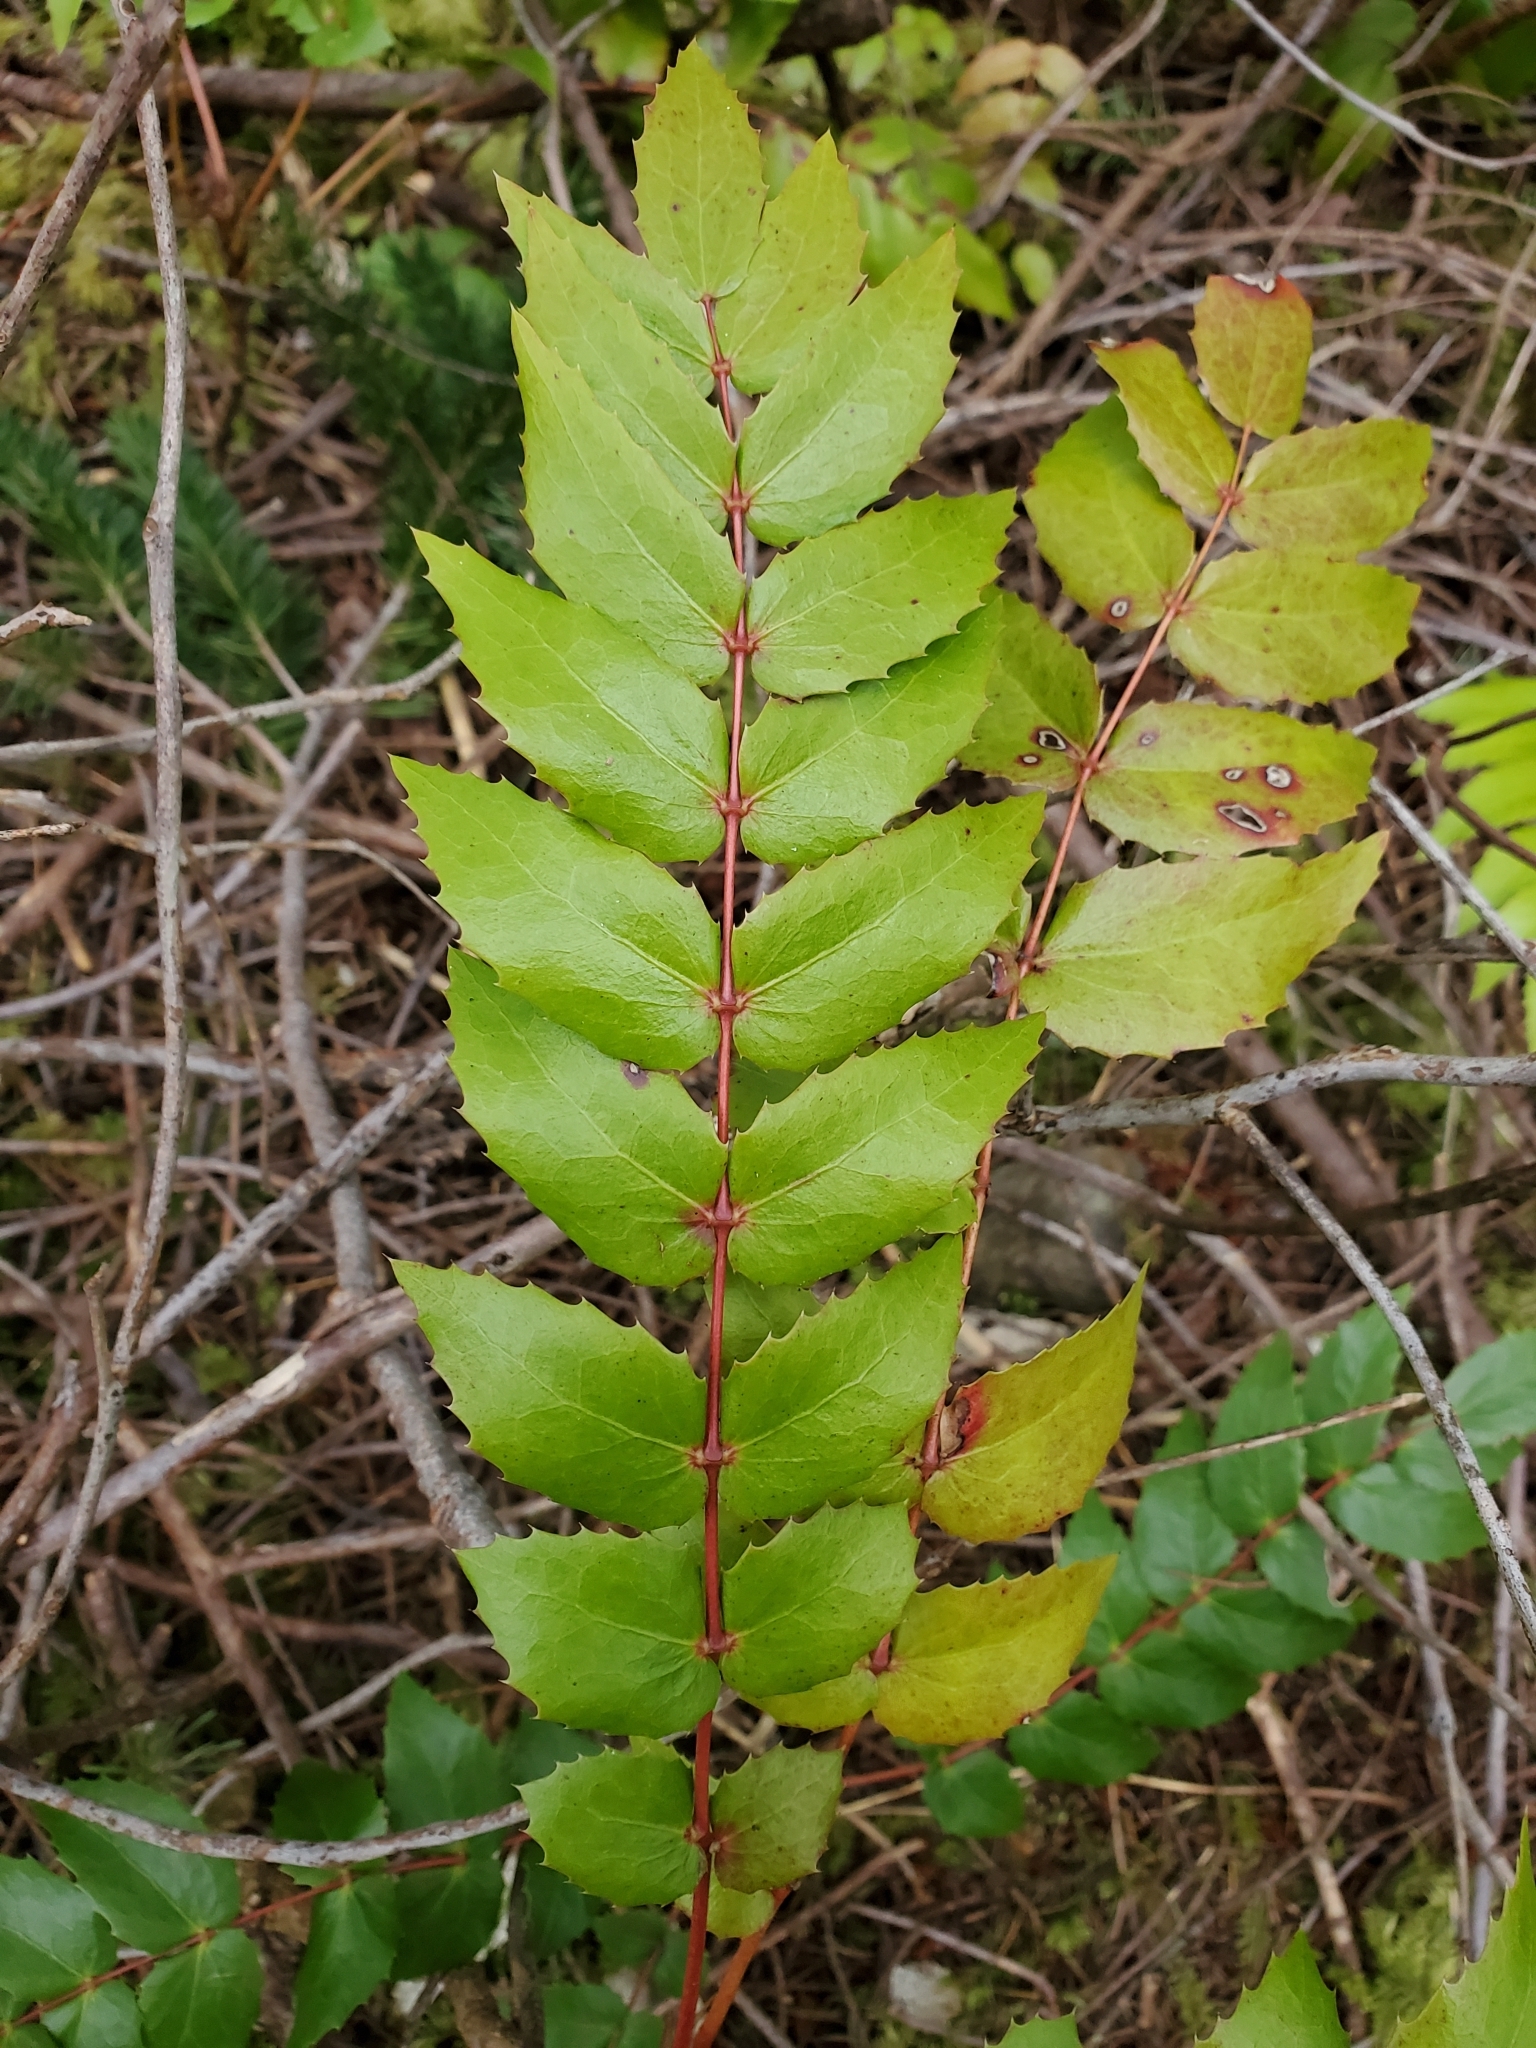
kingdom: Plantae
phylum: Tracheophyta
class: Magnoliopsida
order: Ranunculales
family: Berberidaceae
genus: Mahonia
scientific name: Mahonia nervosa
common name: Cascade oregon-grape
